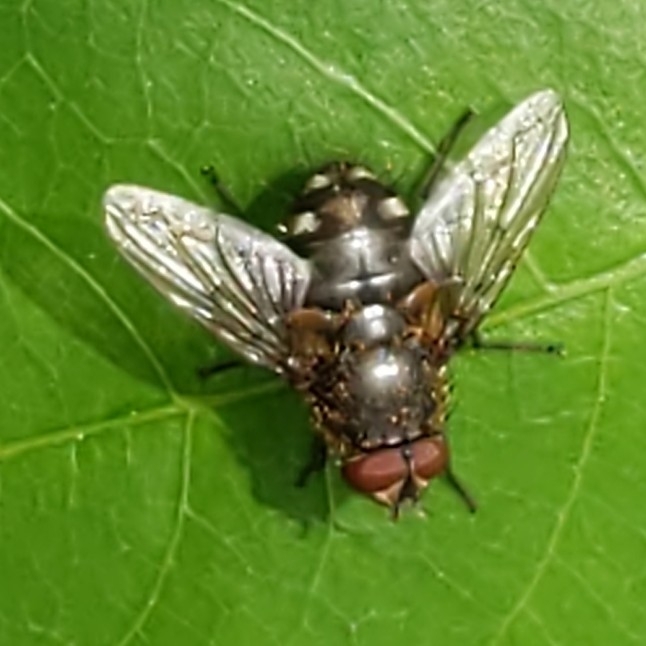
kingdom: Animalia
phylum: Arthropoda
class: Insecta
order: Diptera
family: Polleniidae
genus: Pollenia
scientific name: Pollenia
